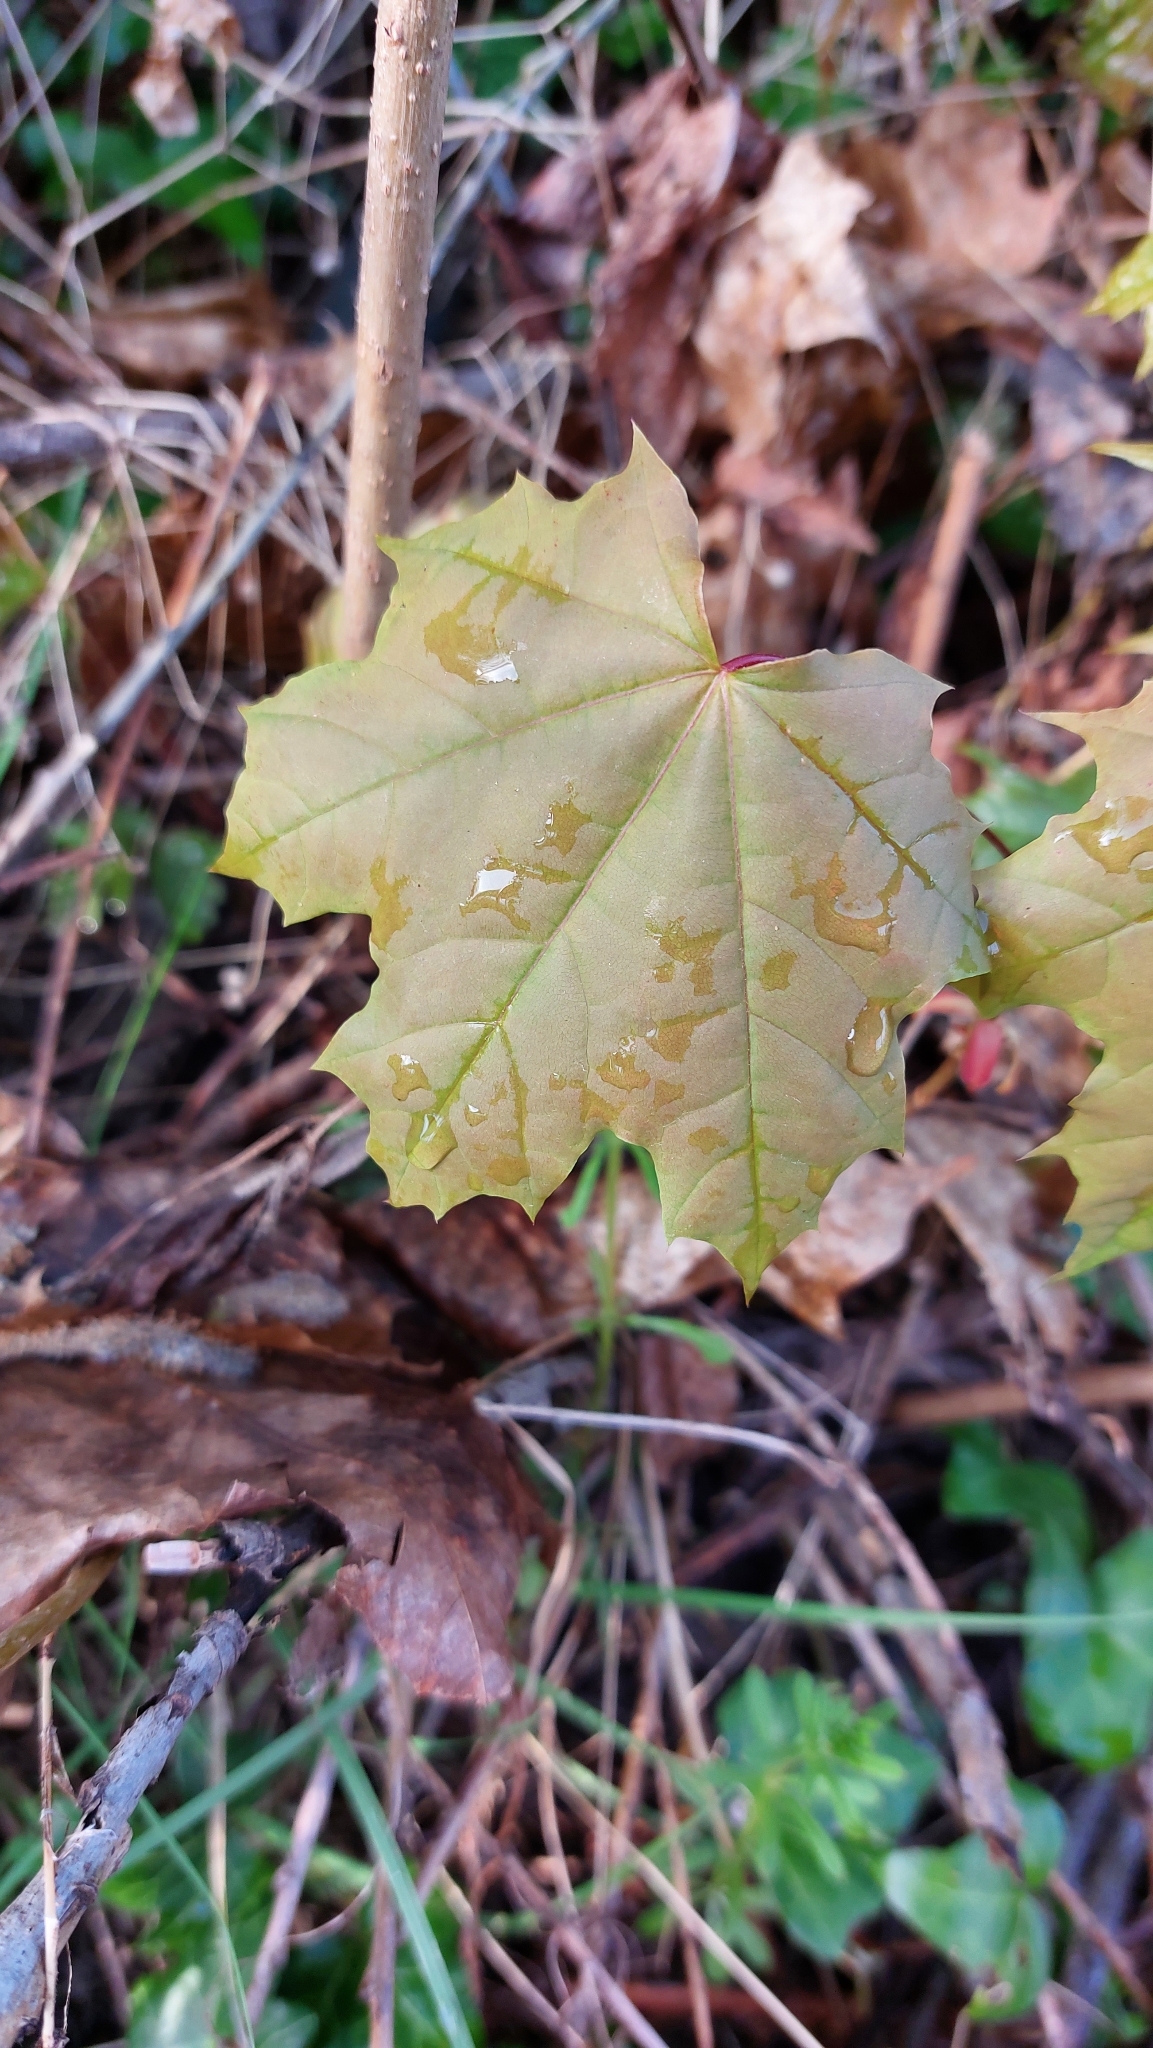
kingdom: Plantae
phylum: Tracheophyta
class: Magnoliopsida
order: Sapindales
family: Sapindaceae
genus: Acer
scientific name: Acer platanoides
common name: Norway maple
